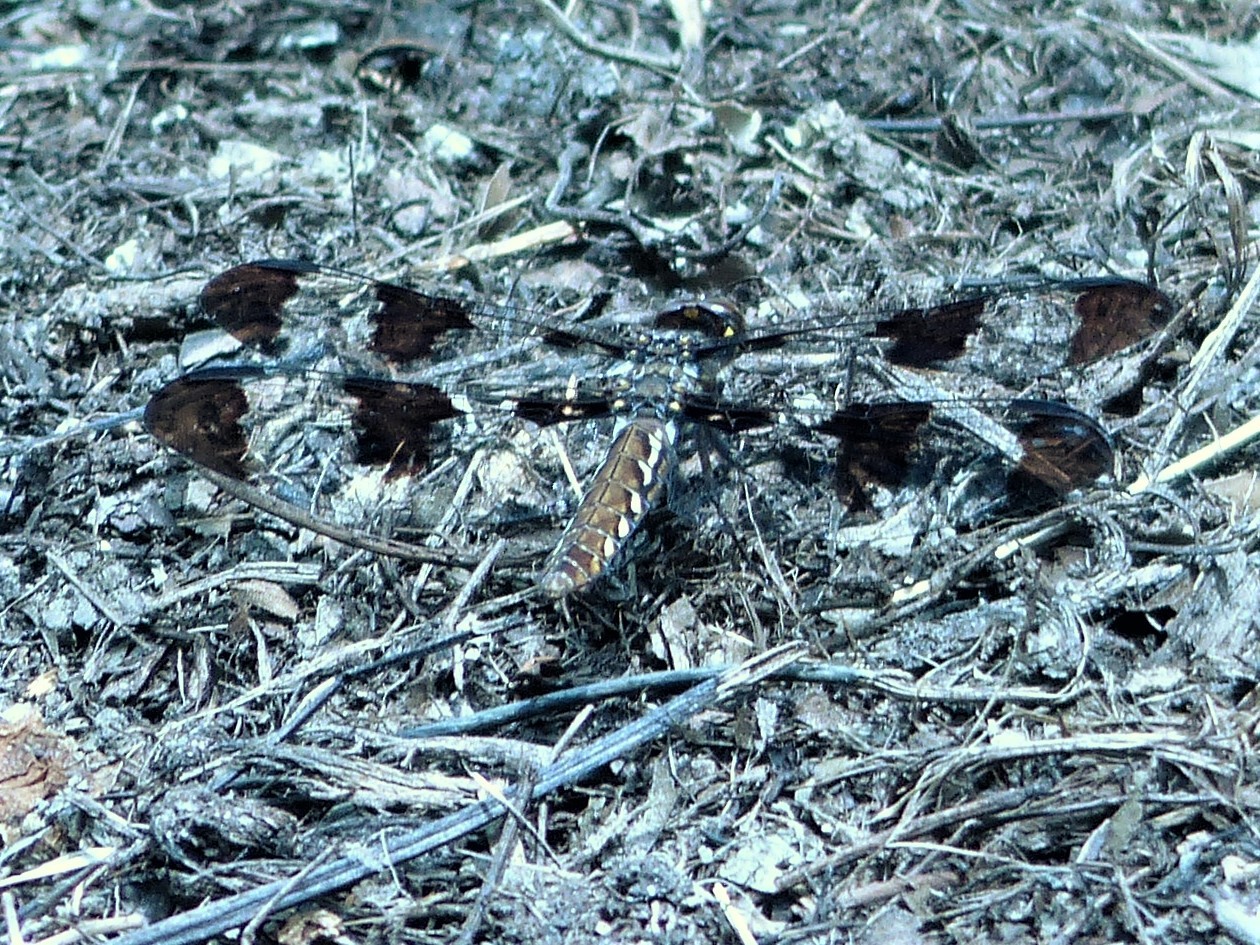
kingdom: Animalia
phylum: Arthropoda
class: Insecta
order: Odonata
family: Libellulidae
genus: Plathemis
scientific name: Plathemis lydia
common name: Common whitetail
